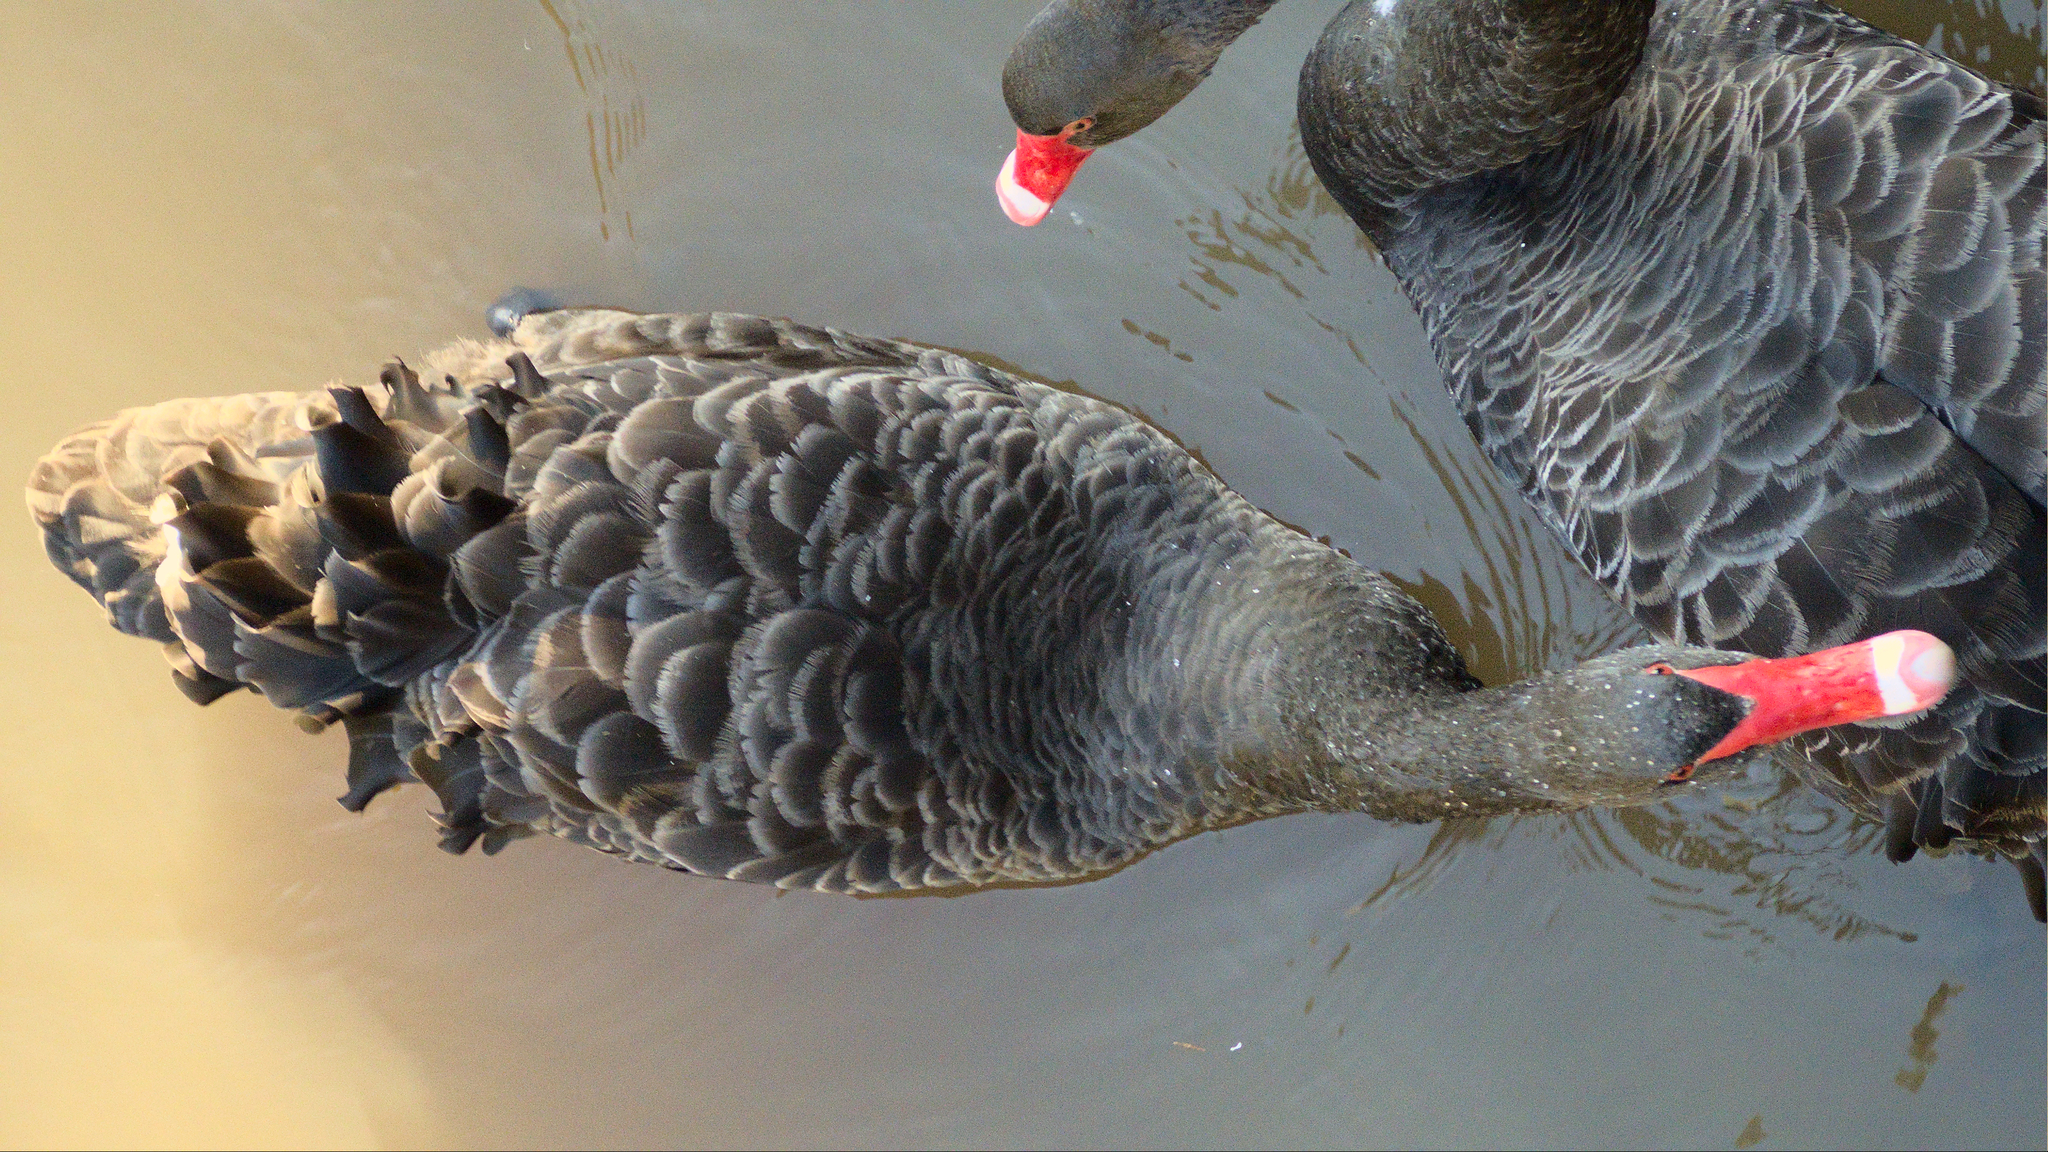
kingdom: Animalia
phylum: Chordata
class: Aves
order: Anseriformes
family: Anatidae
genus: Cygnus
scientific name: Cygnus atratus
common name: Black swan
